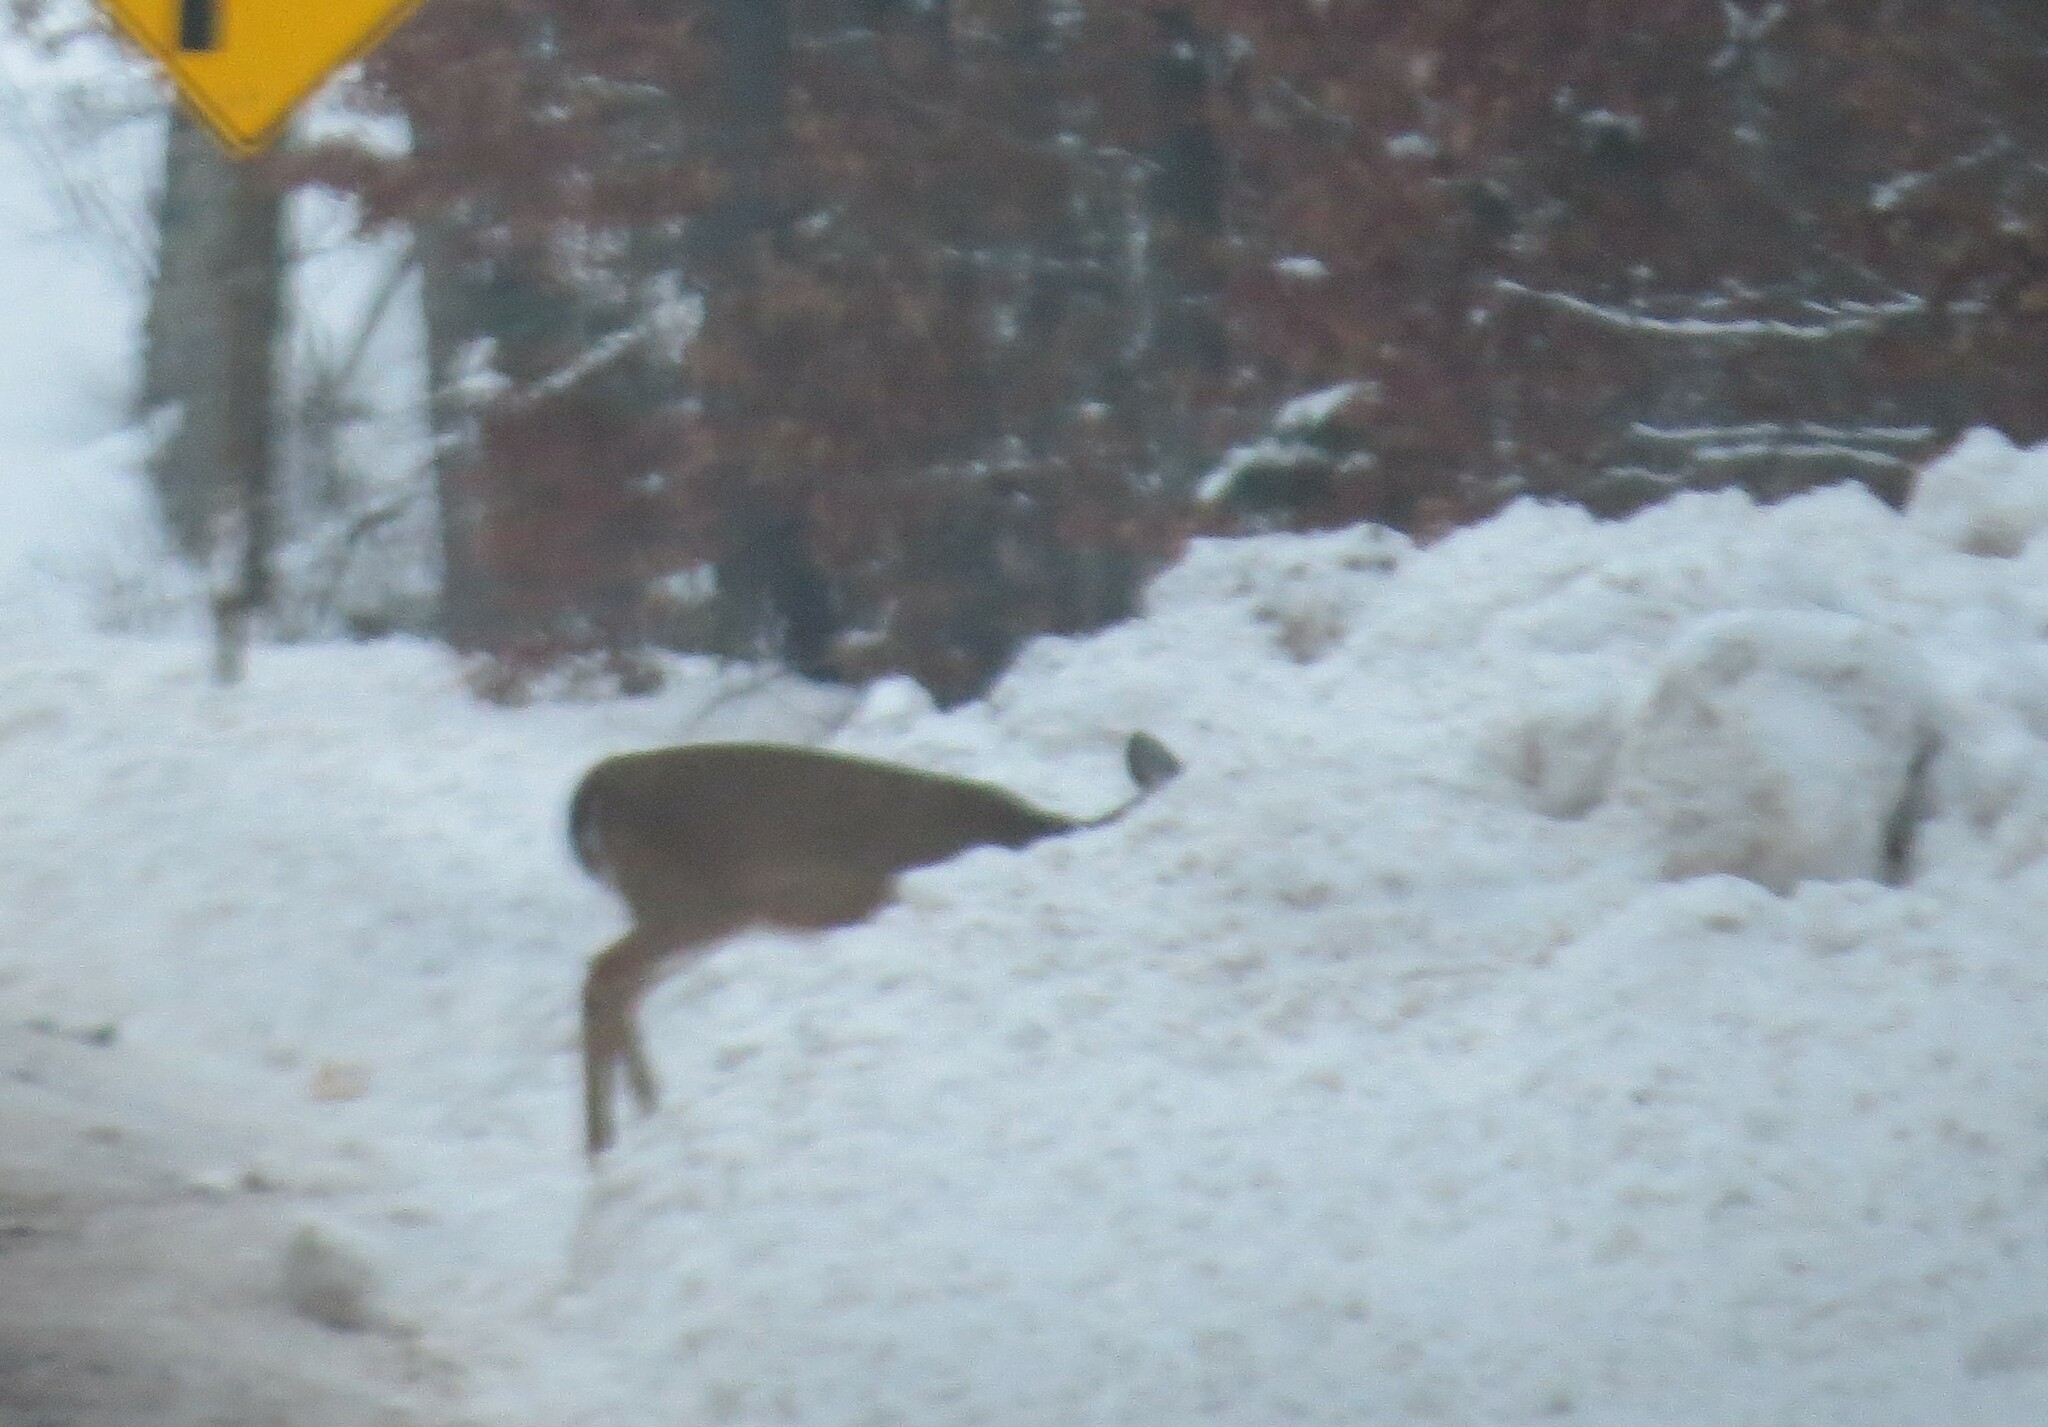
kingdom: Animalia
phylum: Chordata
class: Mammalia
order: Artiodactyla
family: Cervidae
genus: Odocoileus
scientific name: Odocoileus virginianus
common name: White-tailed deer
